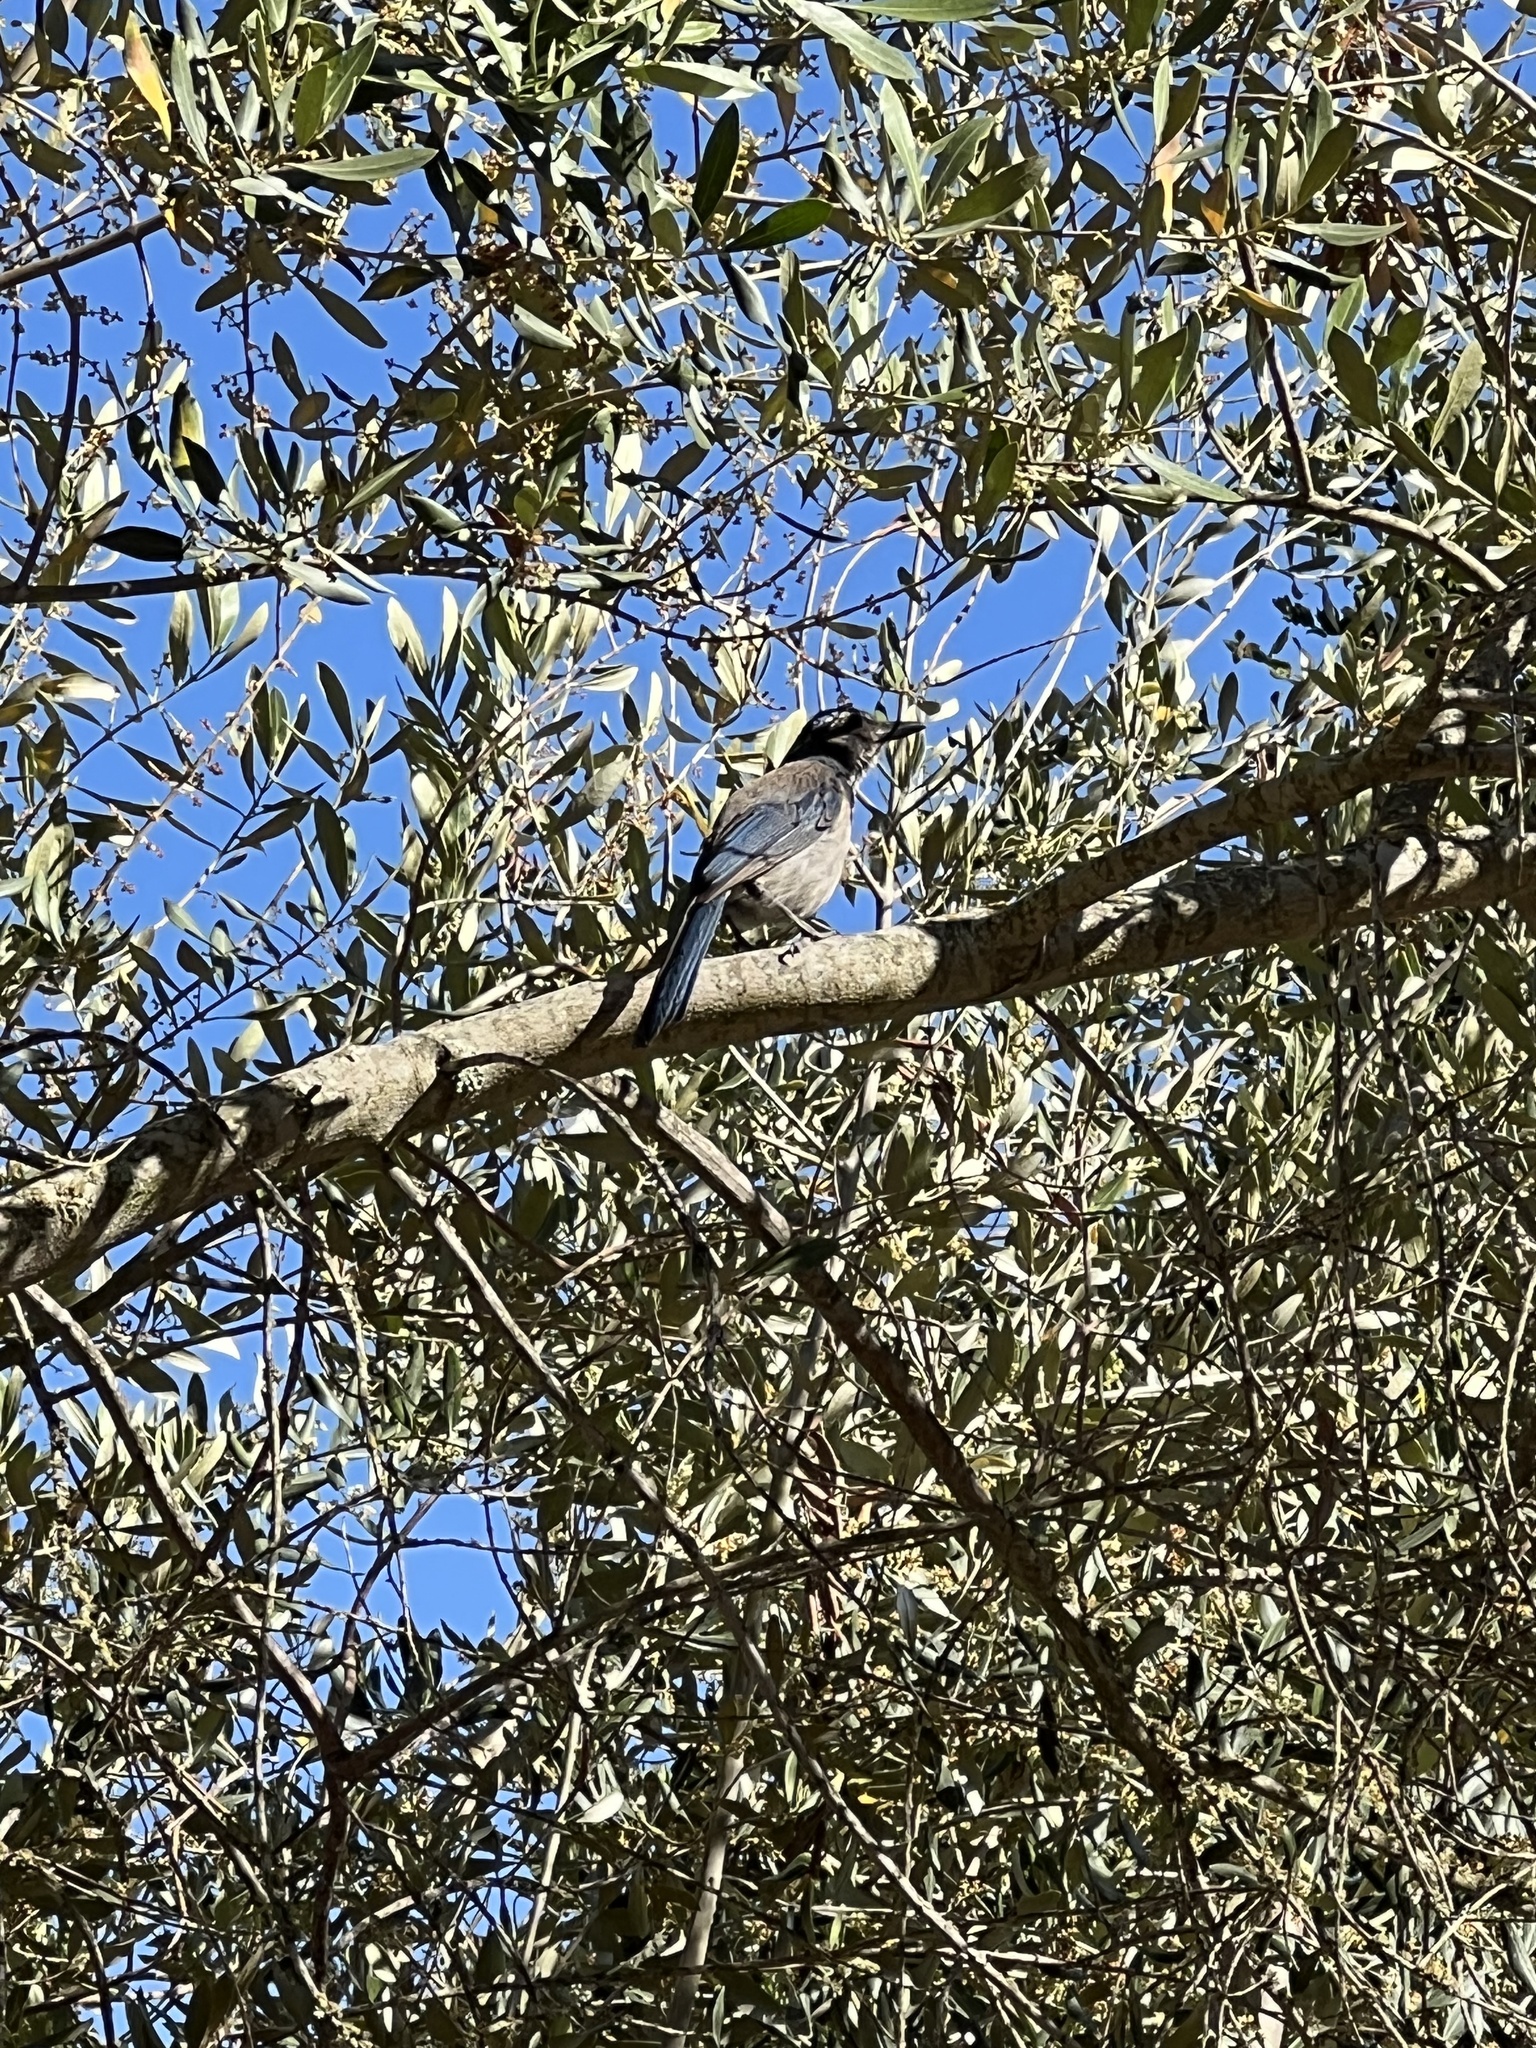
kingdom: Animalia
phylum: Chordata
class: Aves
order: Passeriformes
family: Corvidae
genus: Aphelocoma
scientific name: Aphelocoma californica
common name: California scrub-jay
